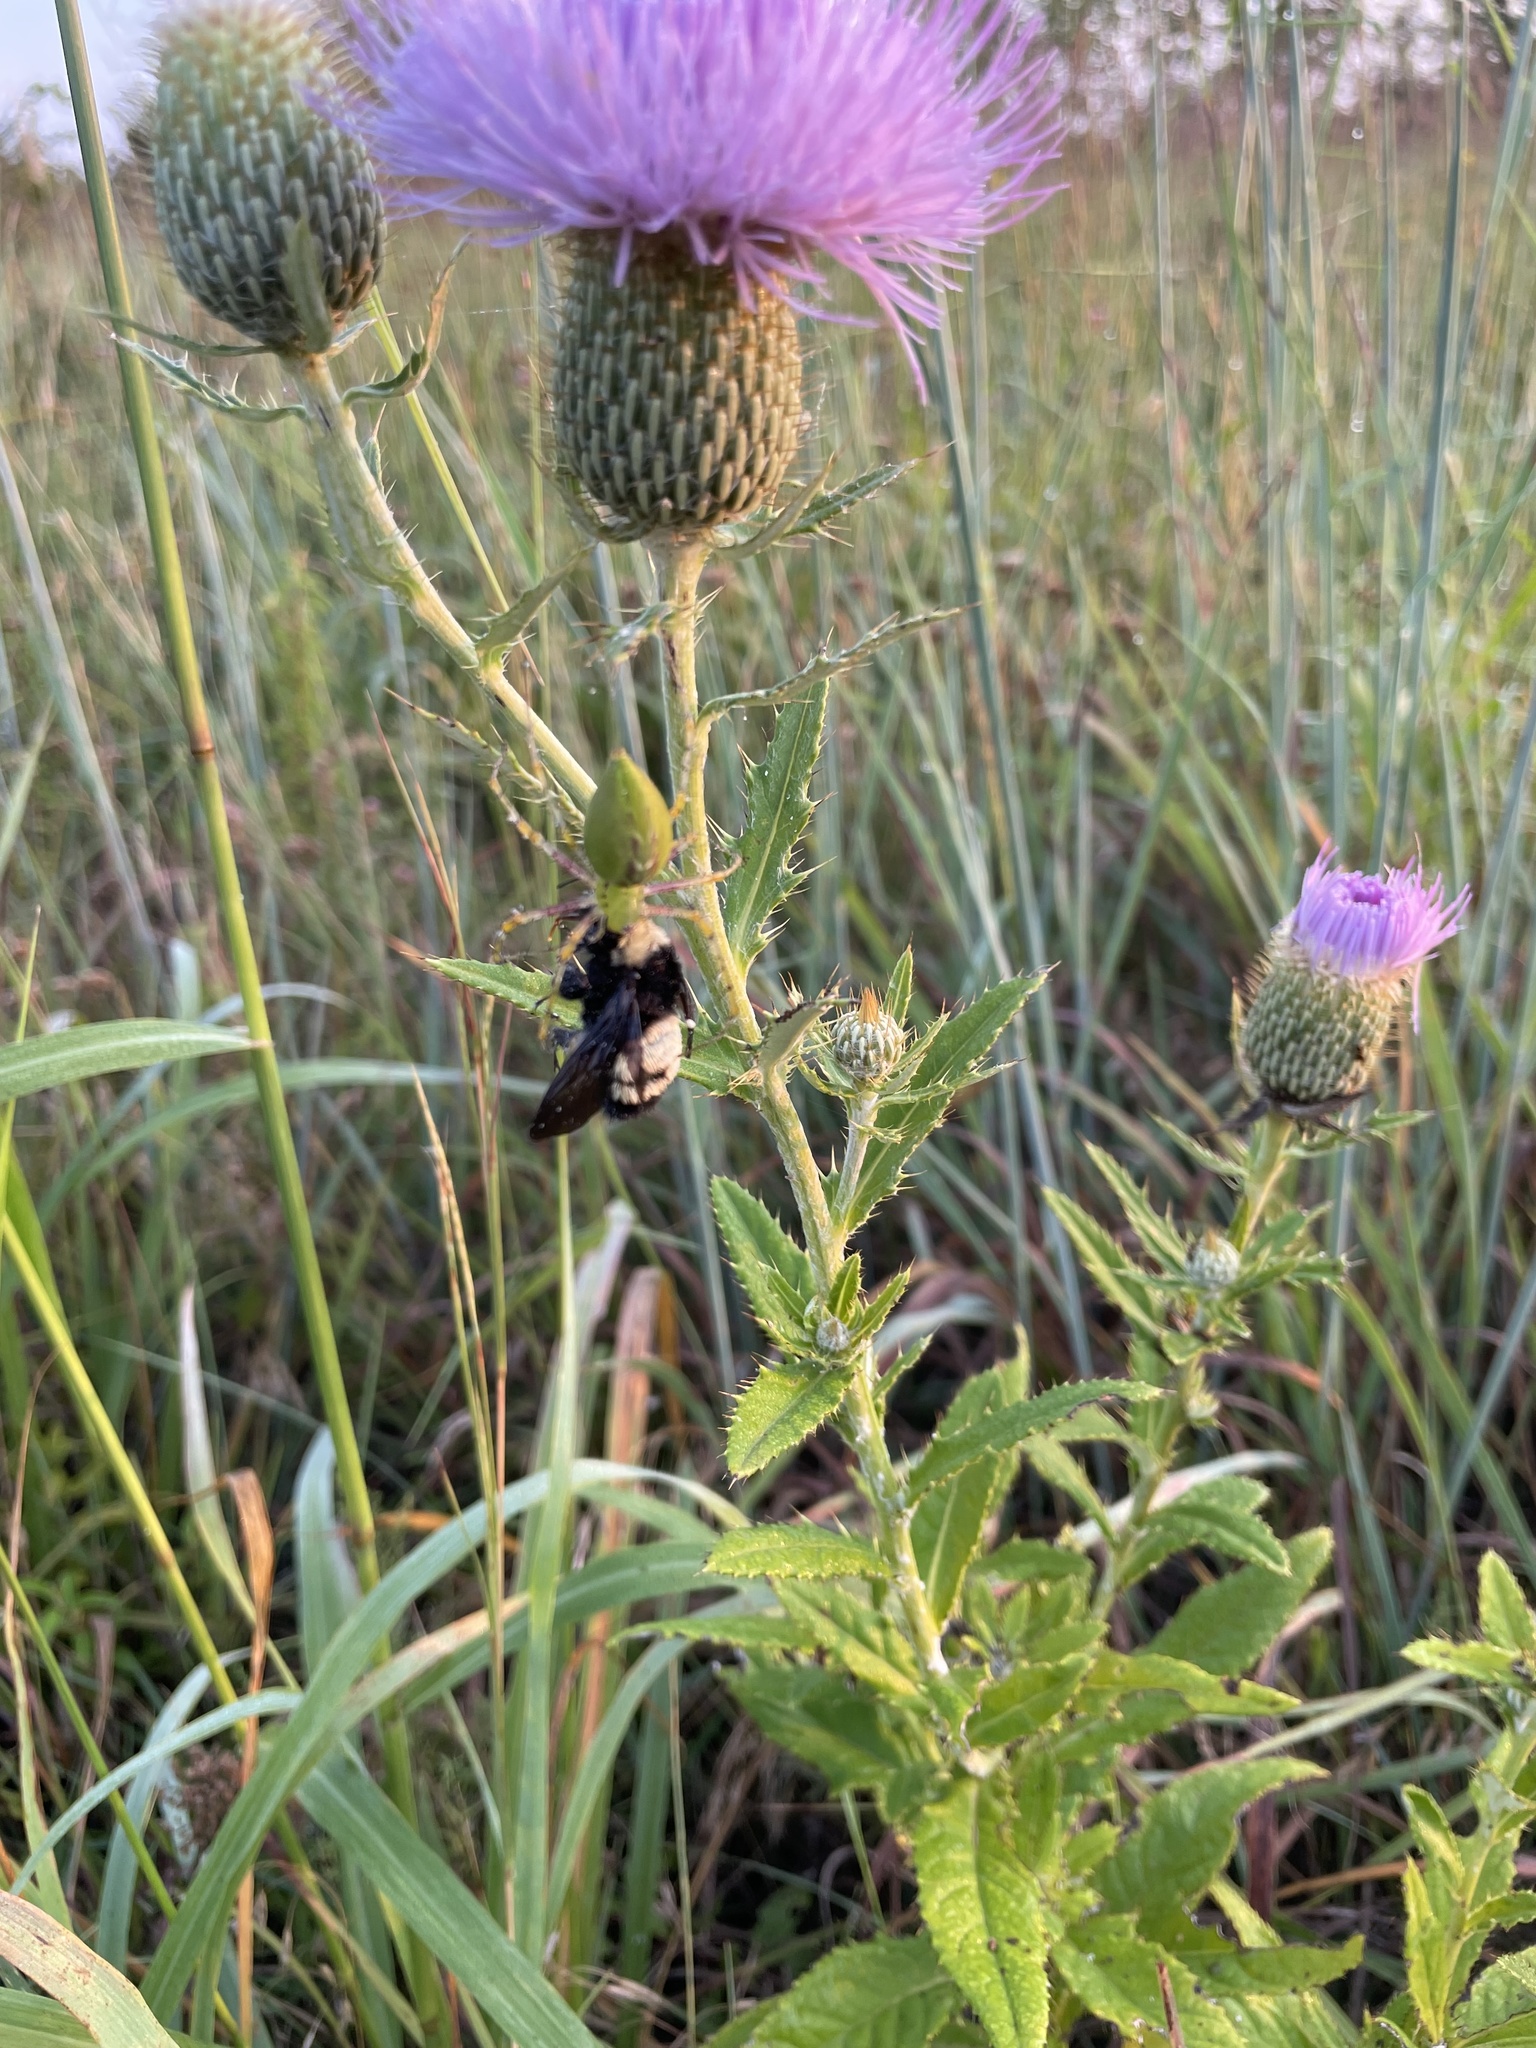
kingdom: Animalia
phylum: Arthropoda
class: Insecta
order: Hymenoptera
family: Apidae
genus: Bombus
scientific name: Bombus pensylvanicus
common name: Bumble bee
